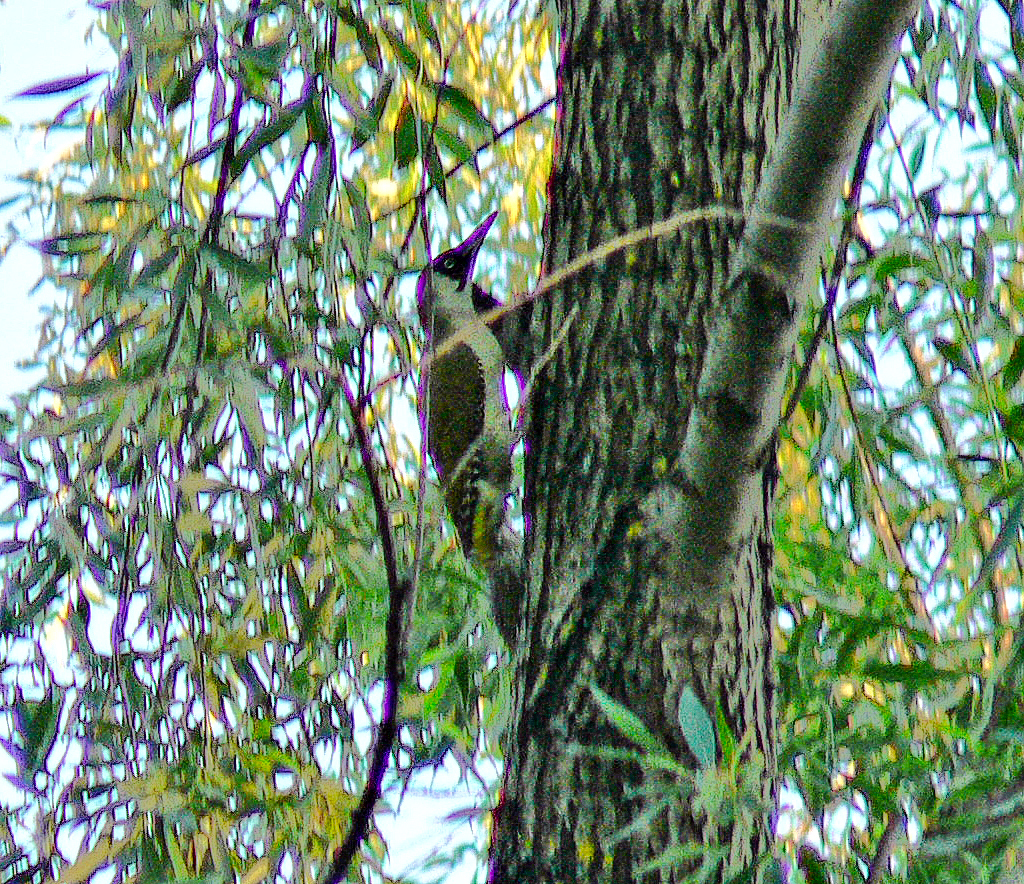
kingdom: Animalia
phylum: Chordata
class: Aves
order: Piciformes
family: Picidae
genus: Picus
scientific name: Picus viridis
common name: European green woodpecker
